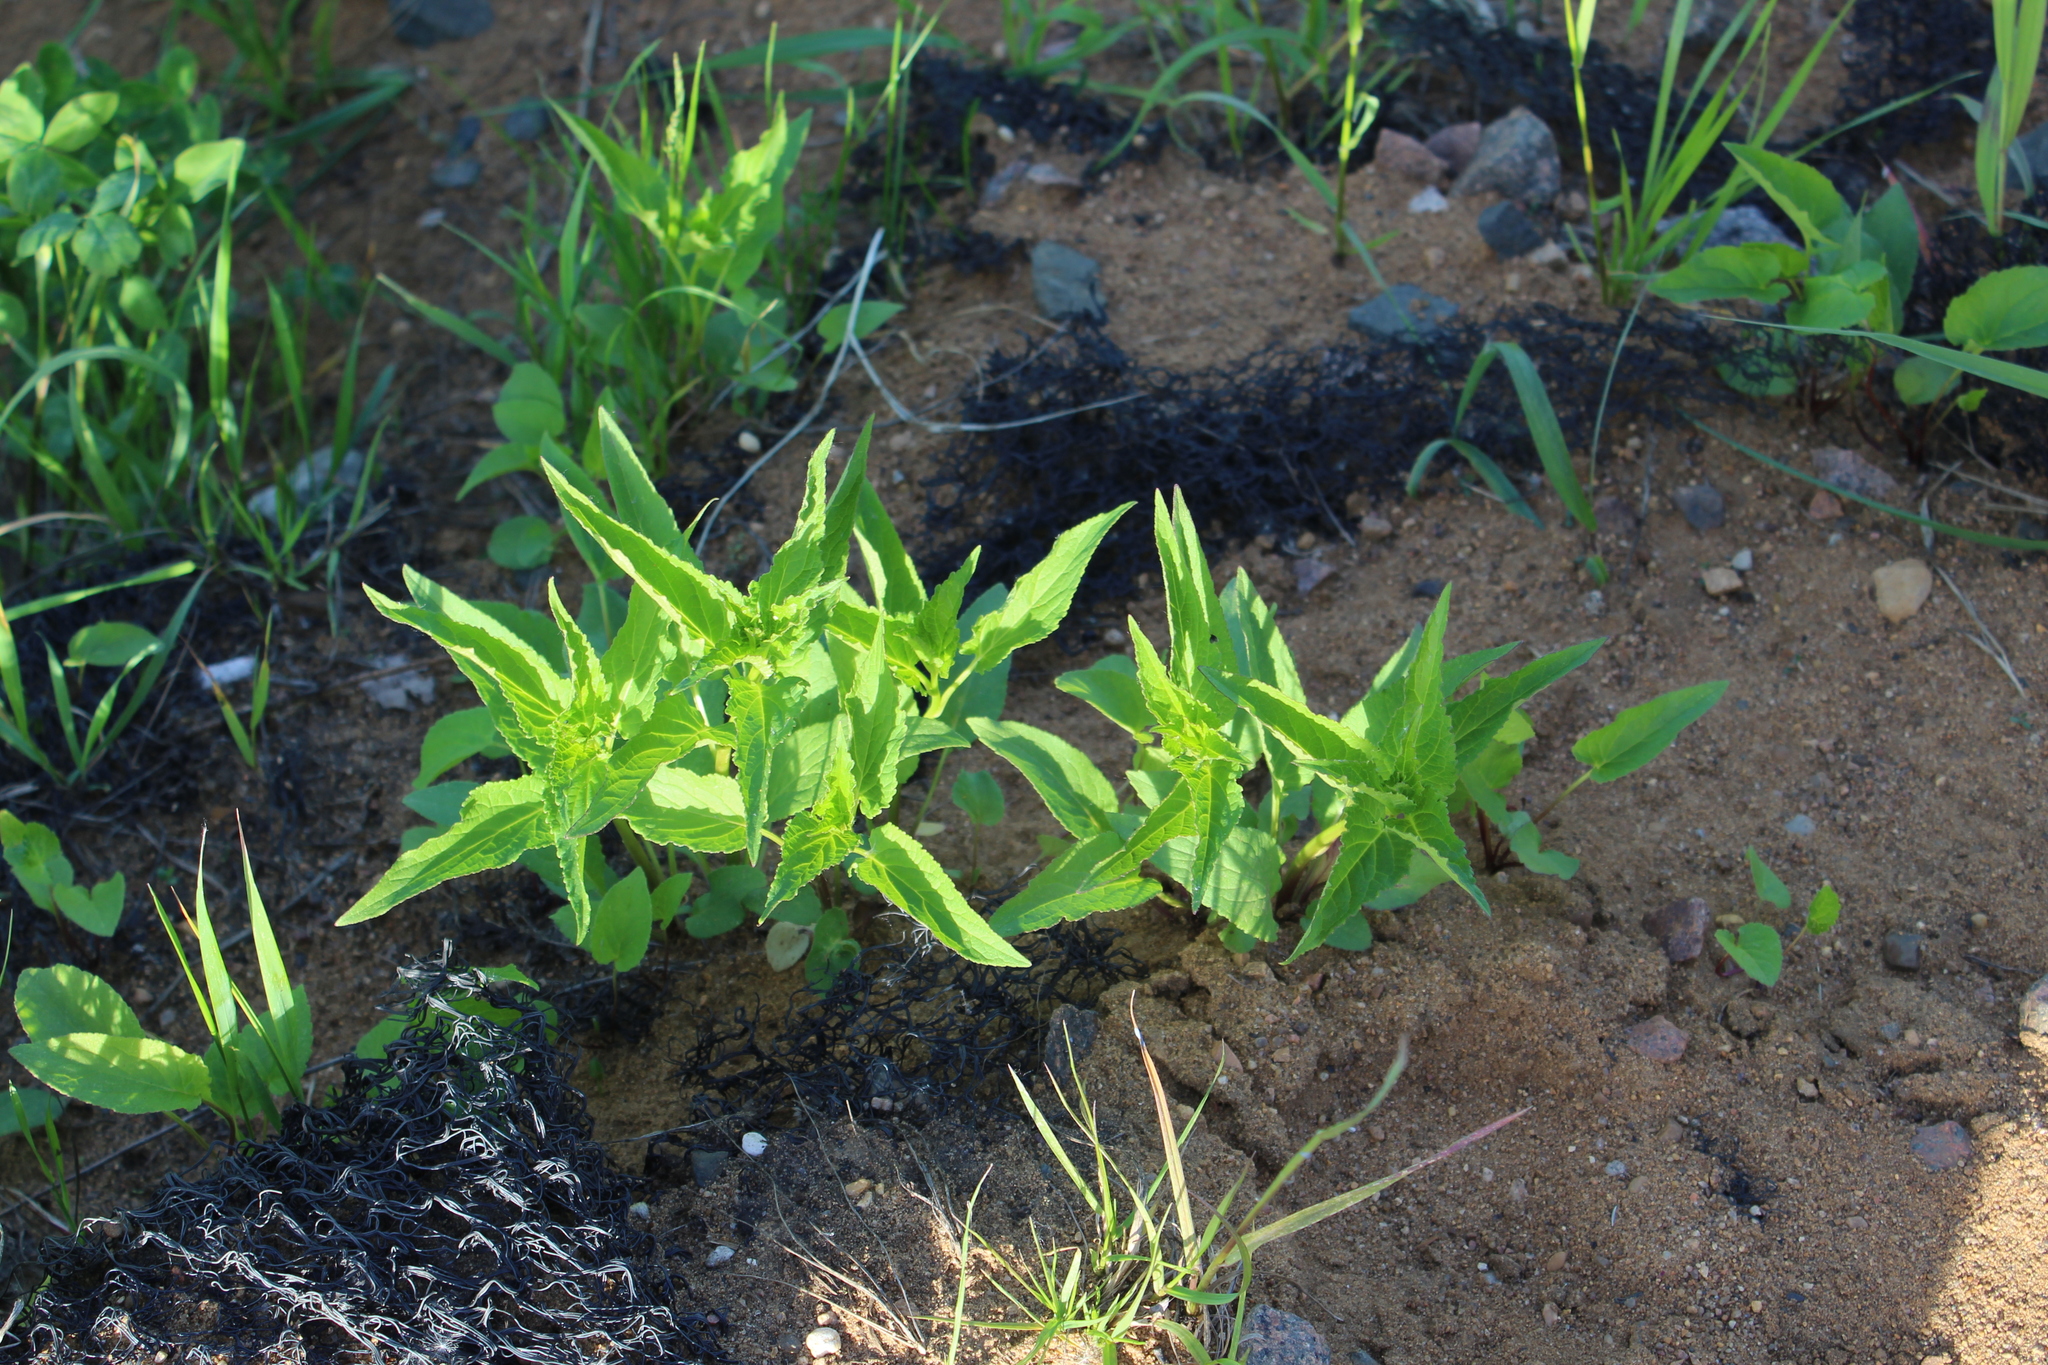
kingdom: Plantae
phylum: Tracheophyta
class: Magnoliopsida
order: Asterales
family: Campanulaceae
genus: Campanula
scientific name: Campanula rapunculoides
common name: Creeping bellflower
